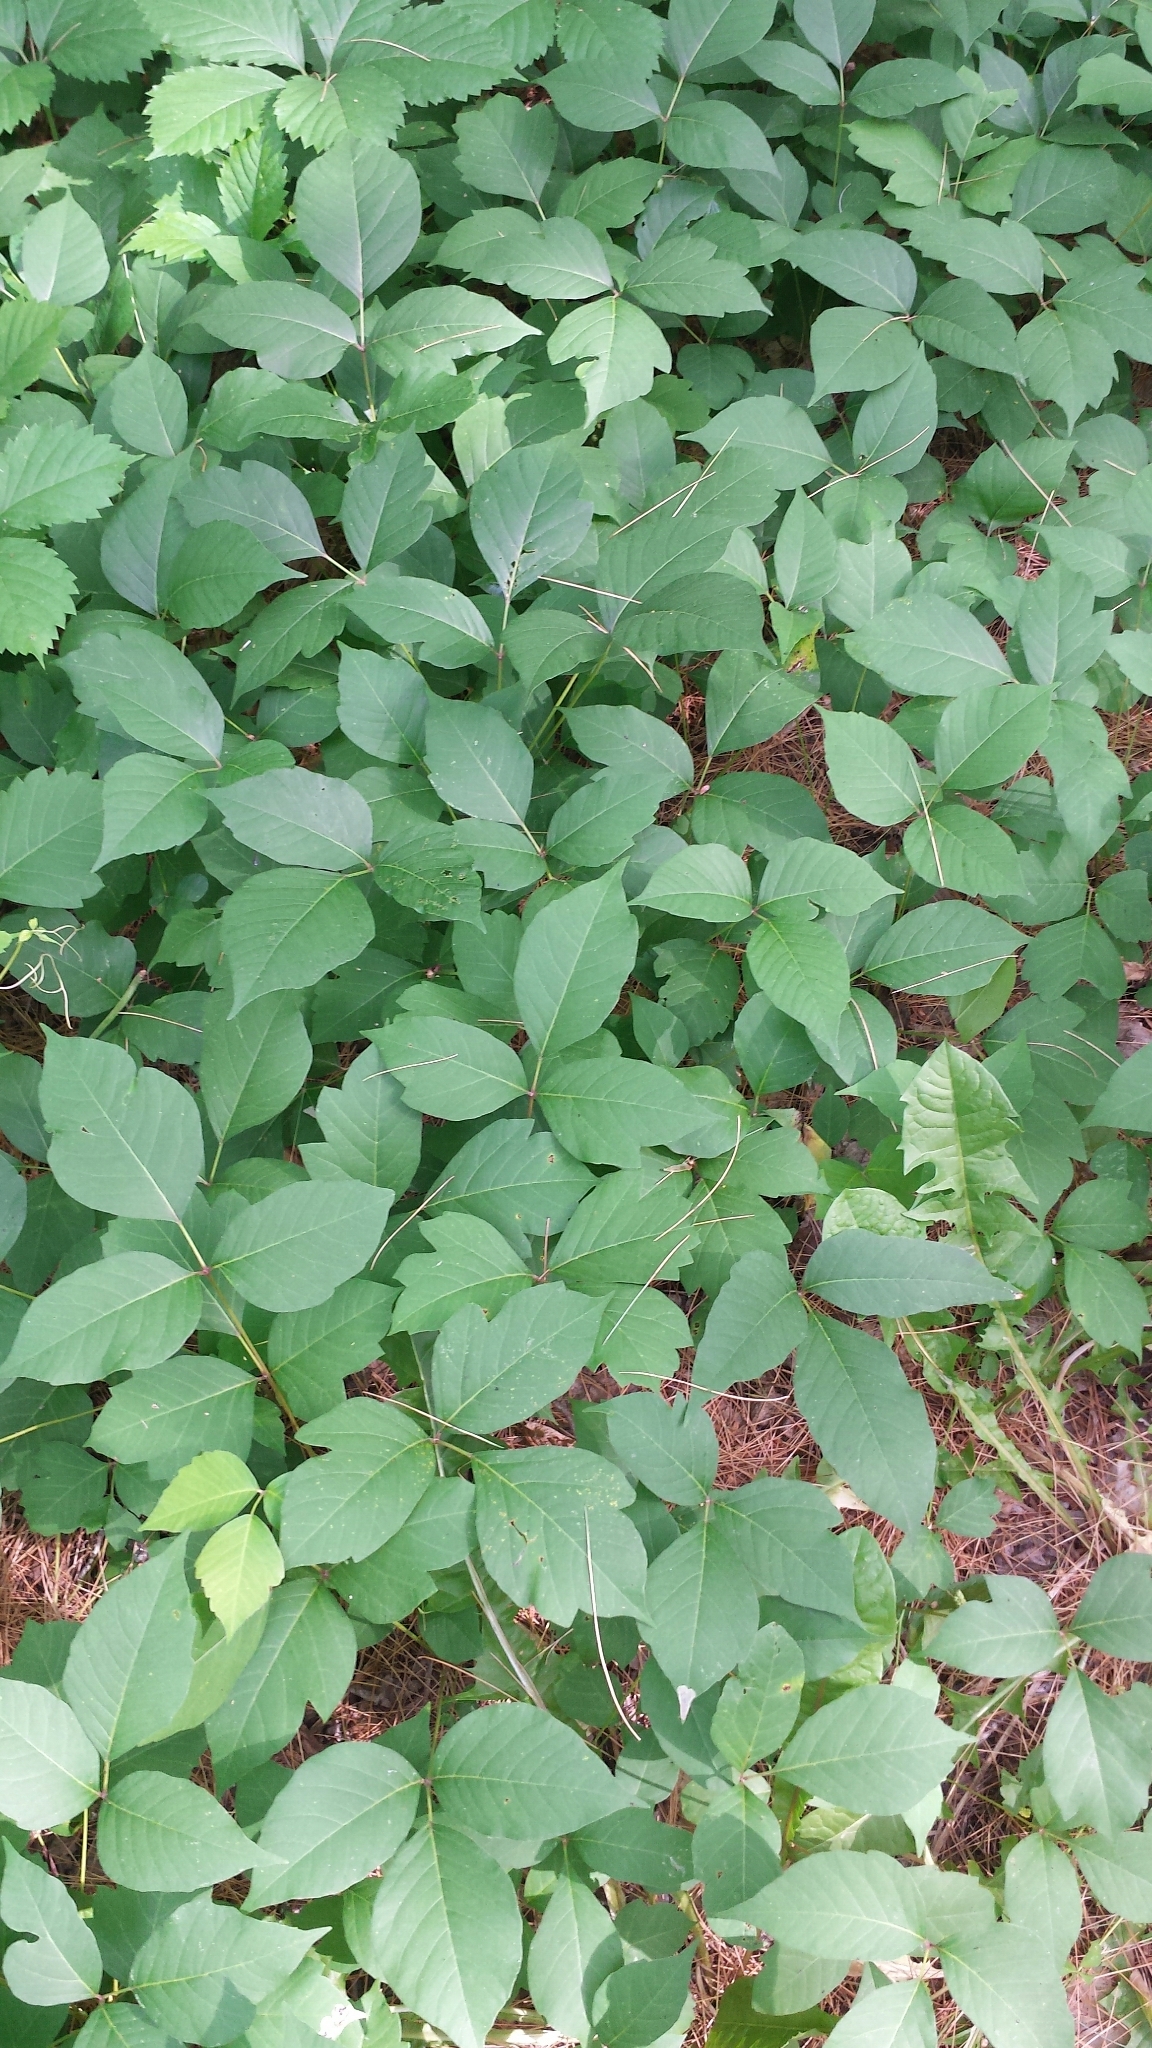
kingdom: Plantae
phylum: Tracheophyta
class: Magnoliopsida
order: Sapindales
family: Anacardiaceae
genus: Toxicodendron
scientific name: Toxicodendron radicans
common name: Poison ivy
